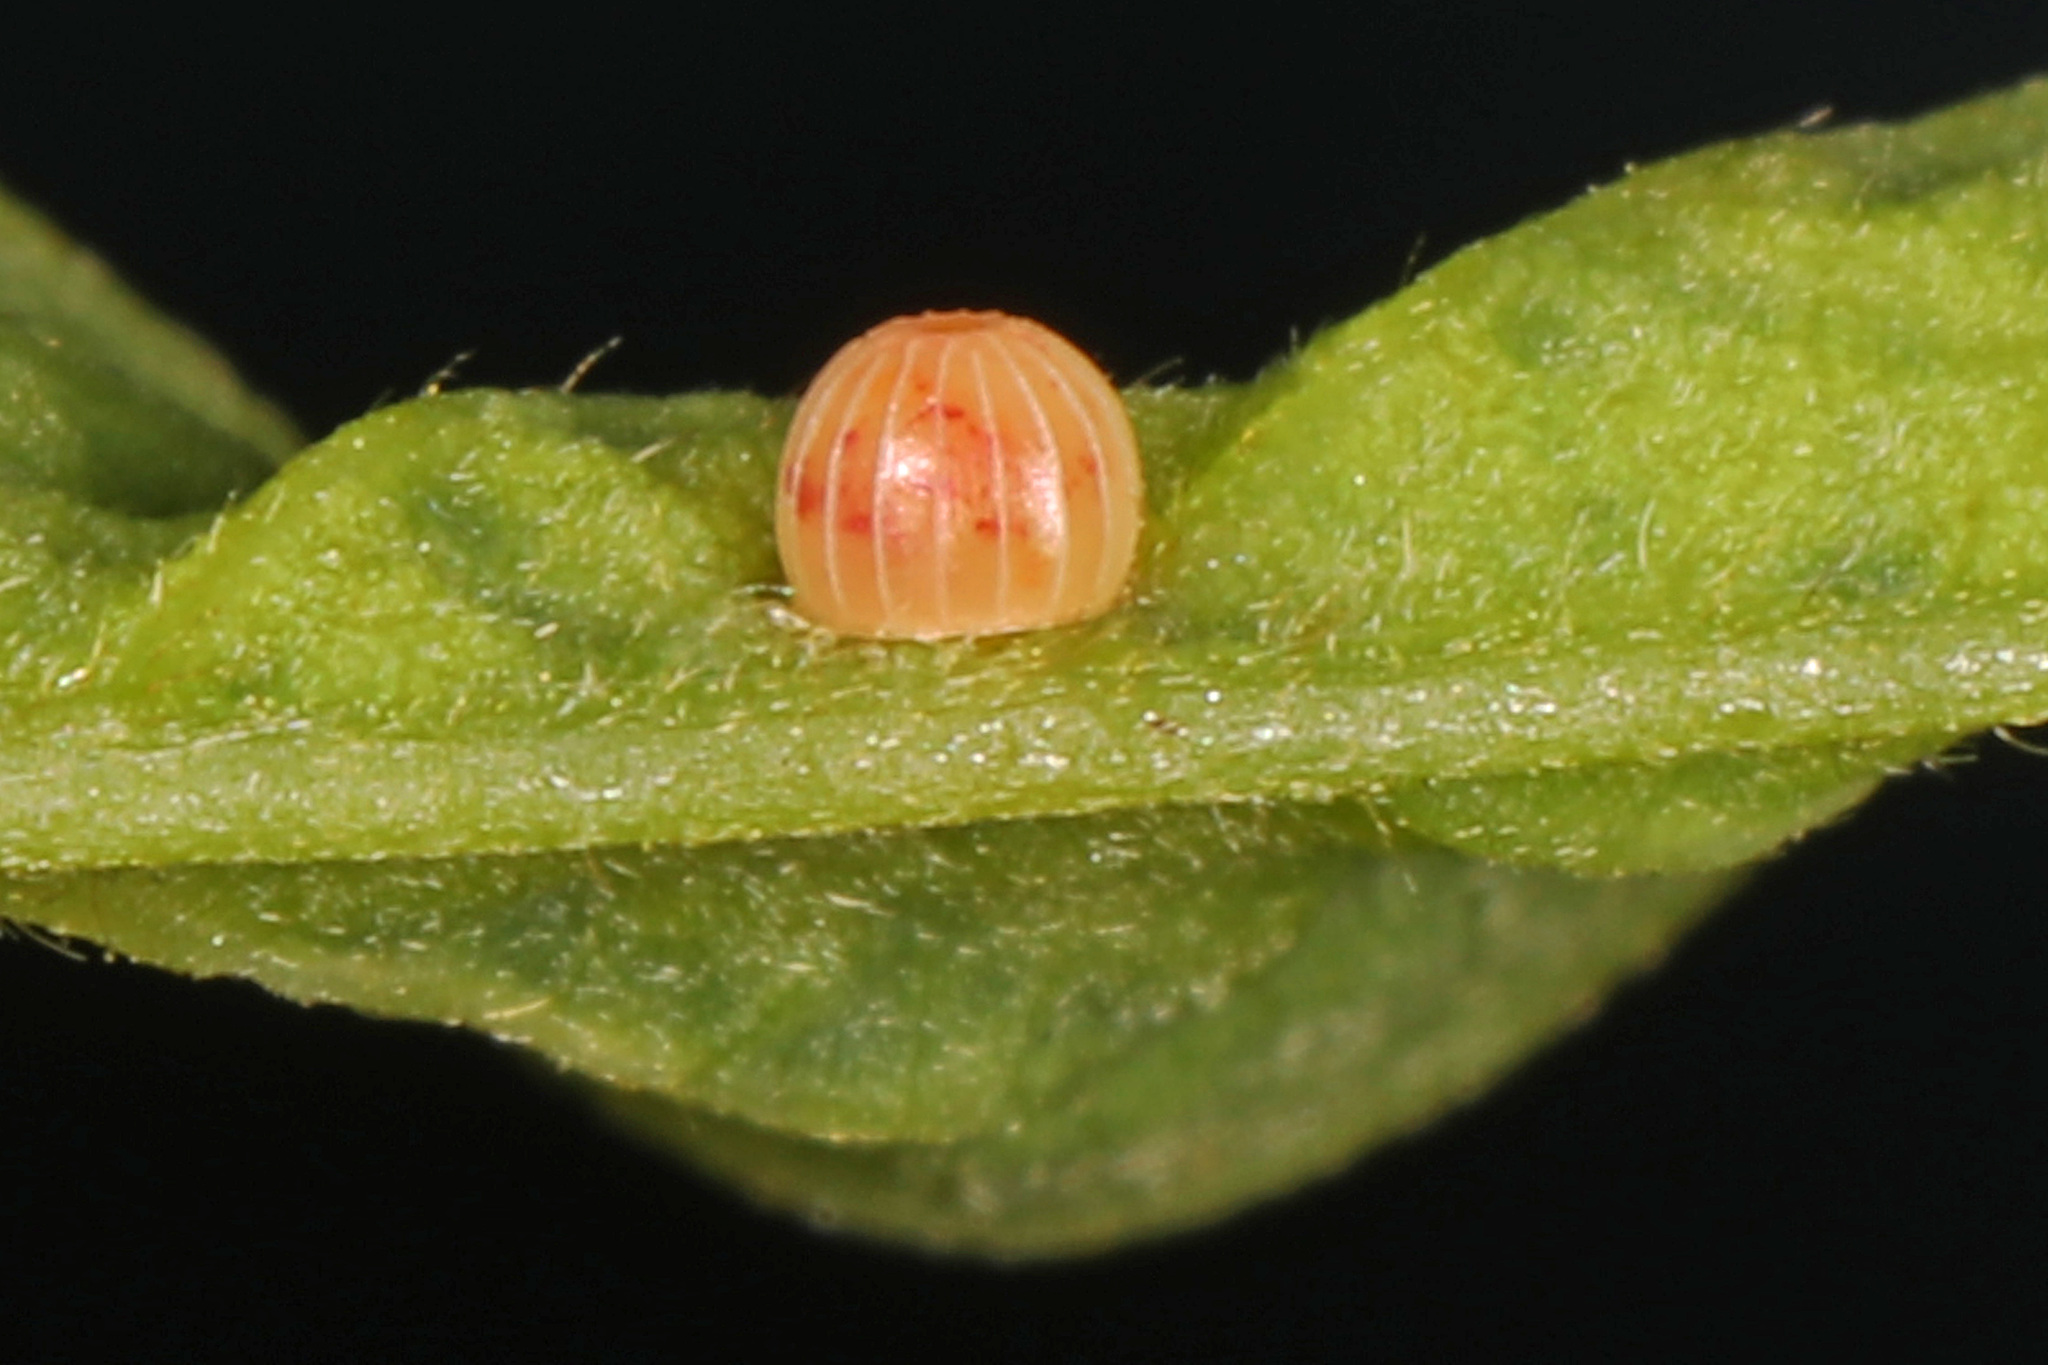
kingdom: Animalia
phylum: Arthropoda
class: Insecta
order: Lepidoptera
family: Hesperiidae
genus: Epargyreus
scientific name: Epargyreus clarus
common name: Silver-spotted skipper
